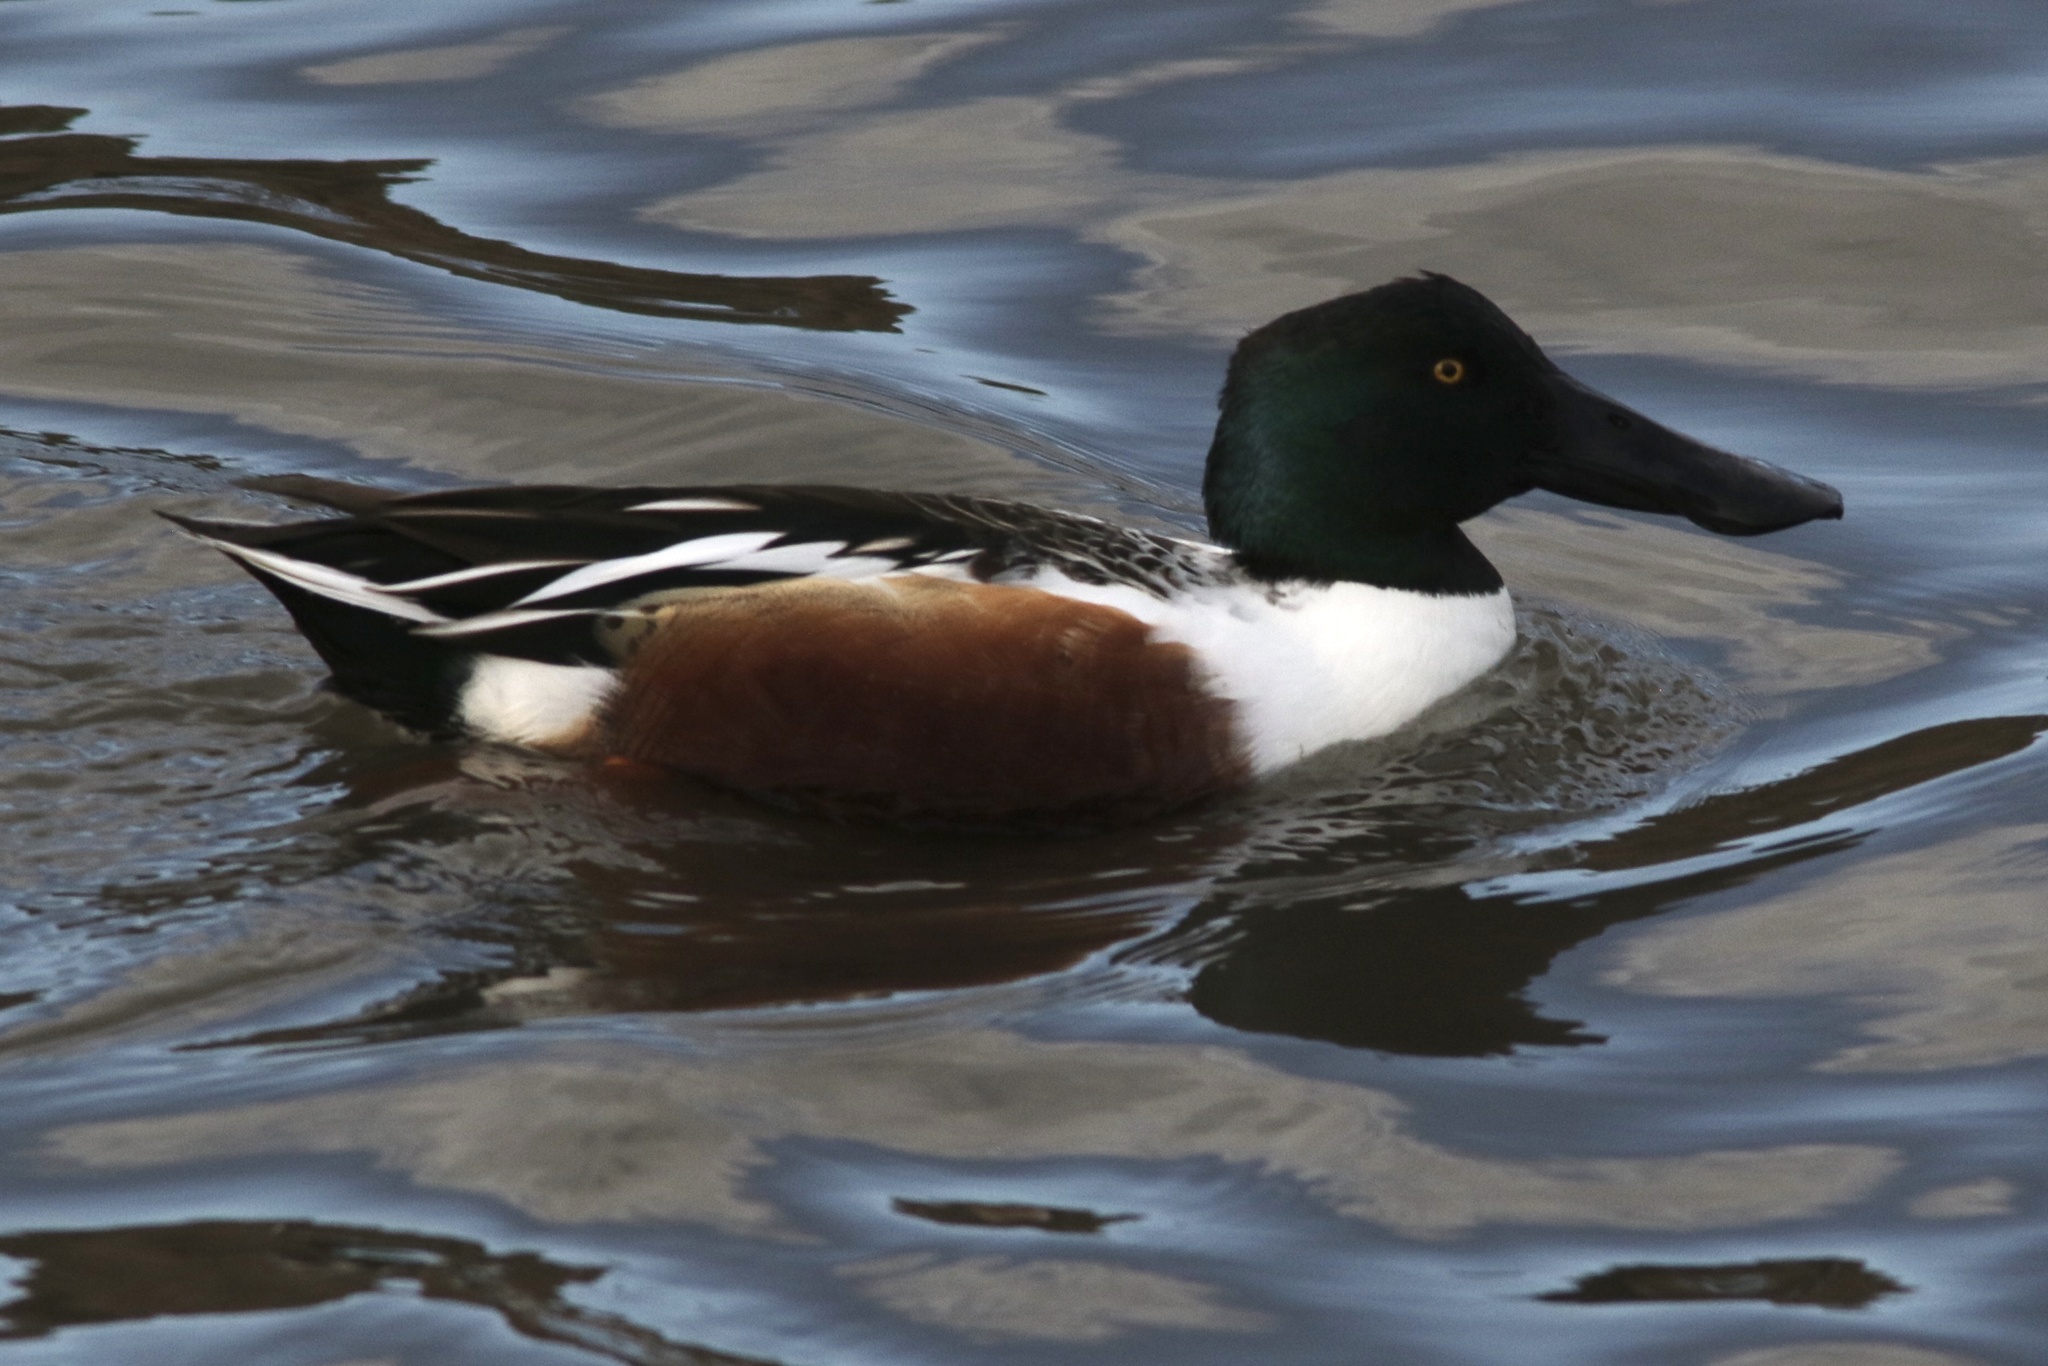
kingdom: Animalia
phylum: Chordata
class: Aves
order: Anseriformes
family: Anatidae
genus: Spatula
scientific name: Spatula clypeata
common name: Northern shoveler
